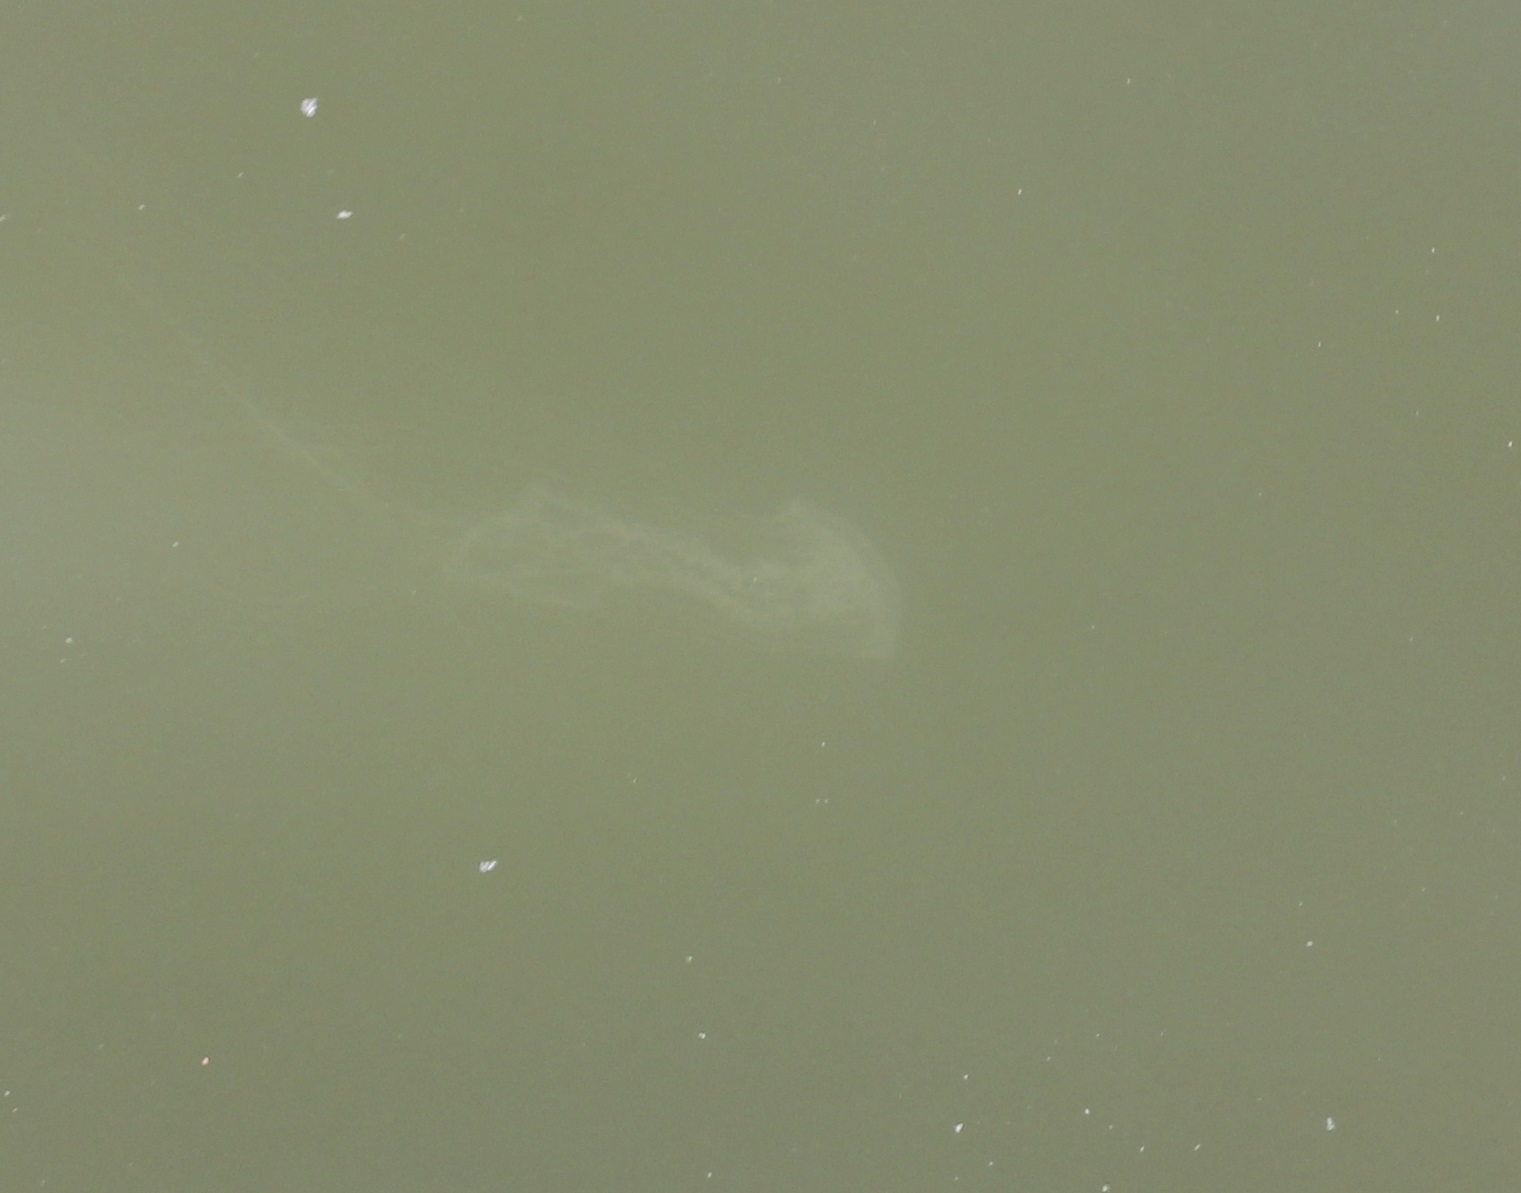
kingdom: Animalia
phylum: Cnidaria
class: Scyphozoa
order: Semaeostomeae
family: Pelagiidae
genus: Chrysaora
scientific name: Chrysaora chesapeakei
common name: Bay nettle
